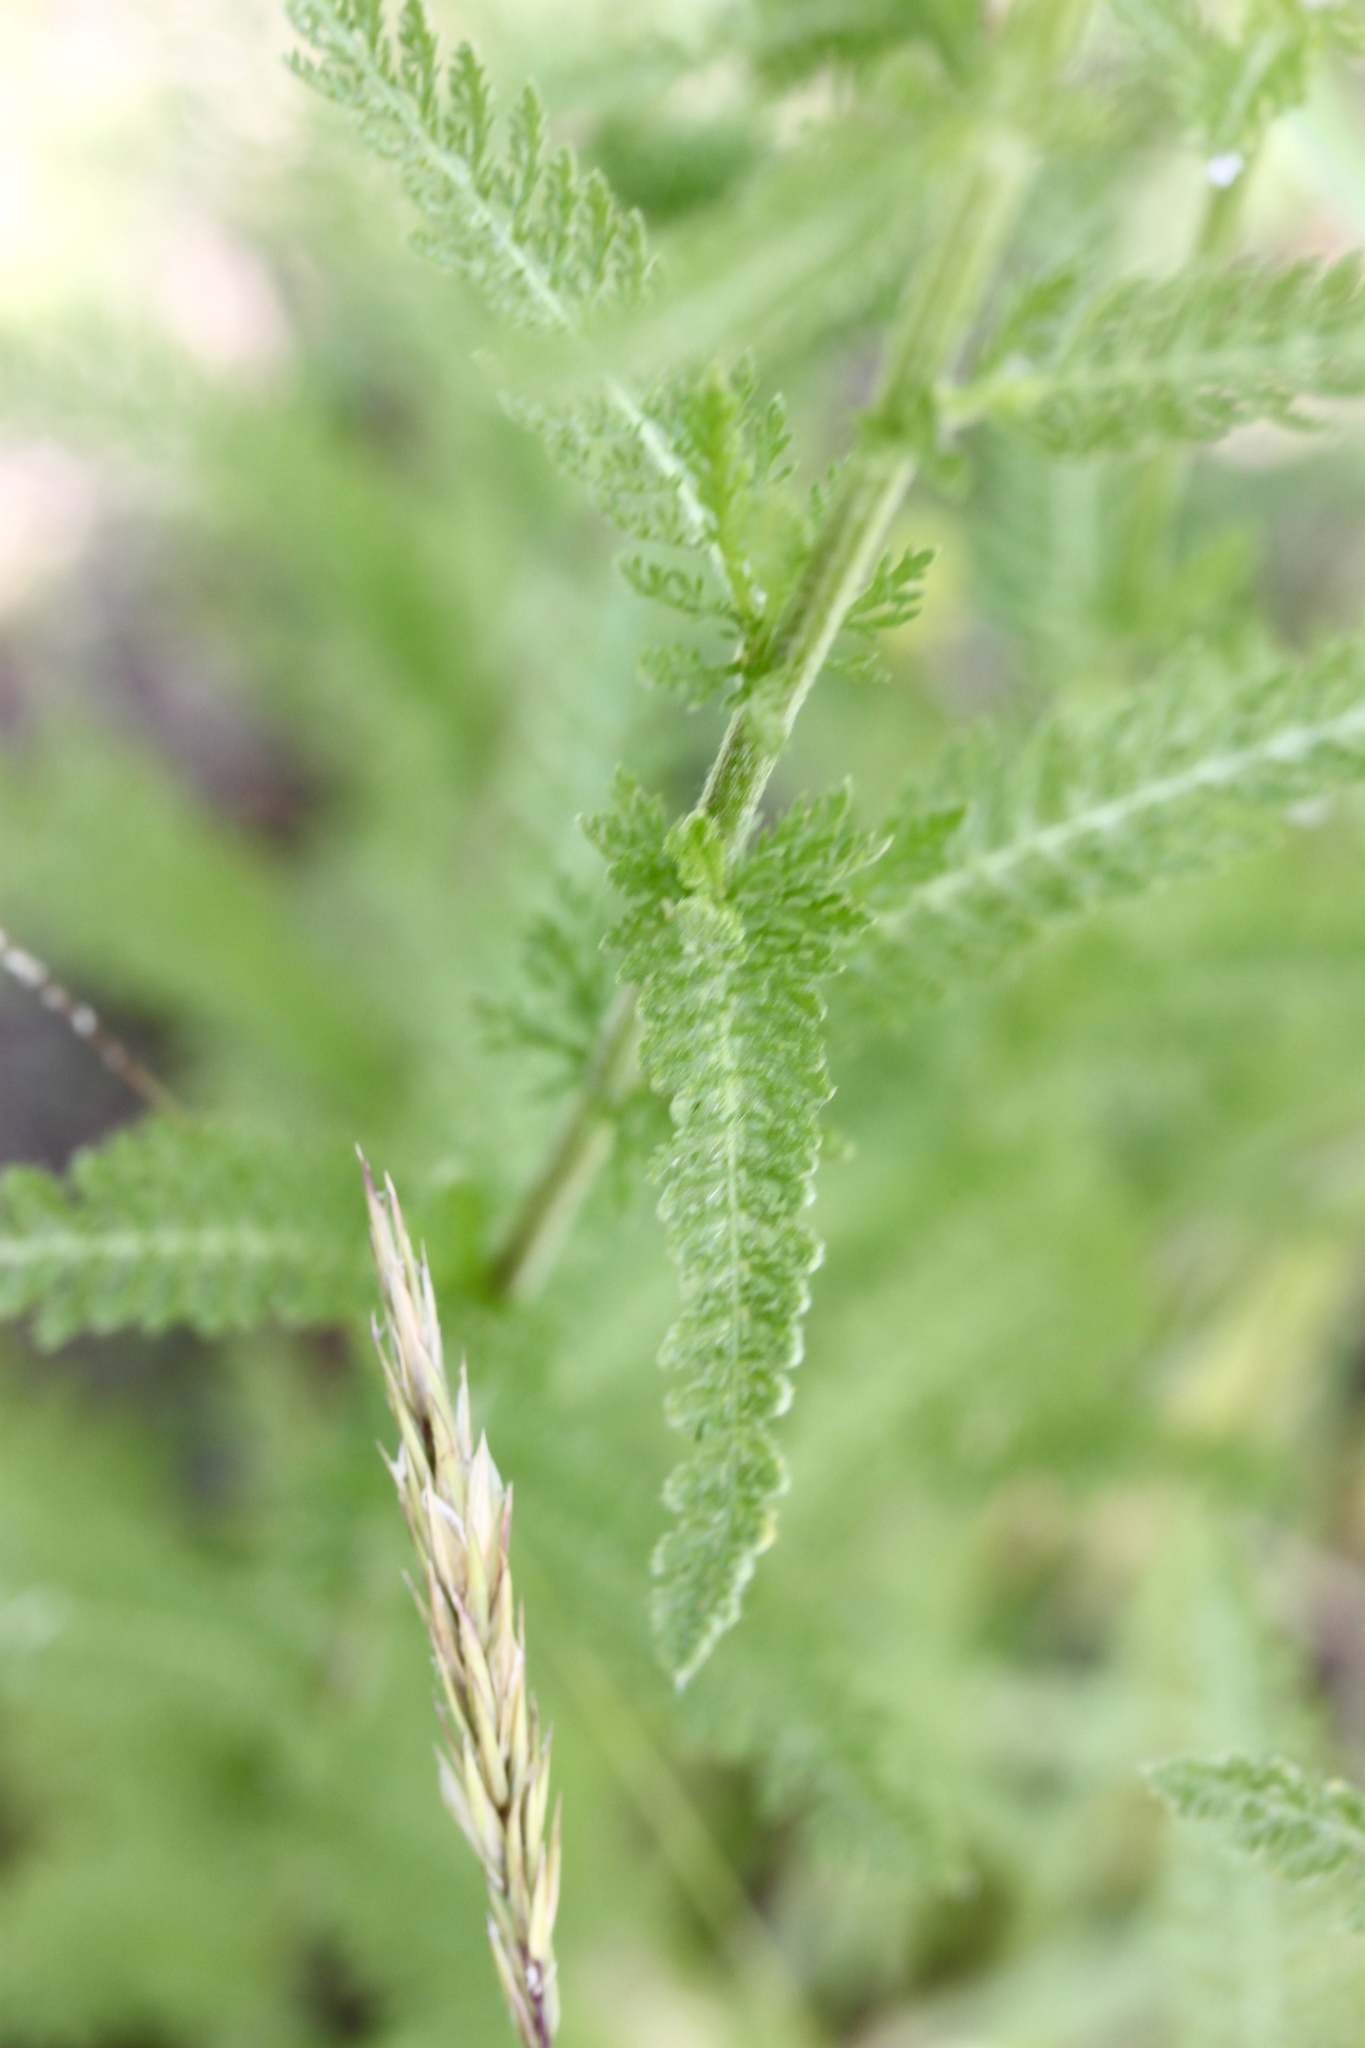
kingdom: Plantae
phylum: Tracheophyta
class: Magnoliopsida
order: Asterales
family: Asteraceae
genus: Achillea
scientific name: Achillea millefolium
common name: Yarrow
